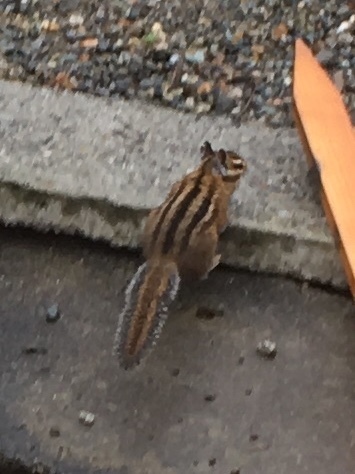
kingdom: Animalia
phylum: Chordata
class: Mammalia
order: Rodentia
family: Sciuridae
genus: Tamias
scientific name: Tamias townsendii
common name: Townsend's chipmunk
